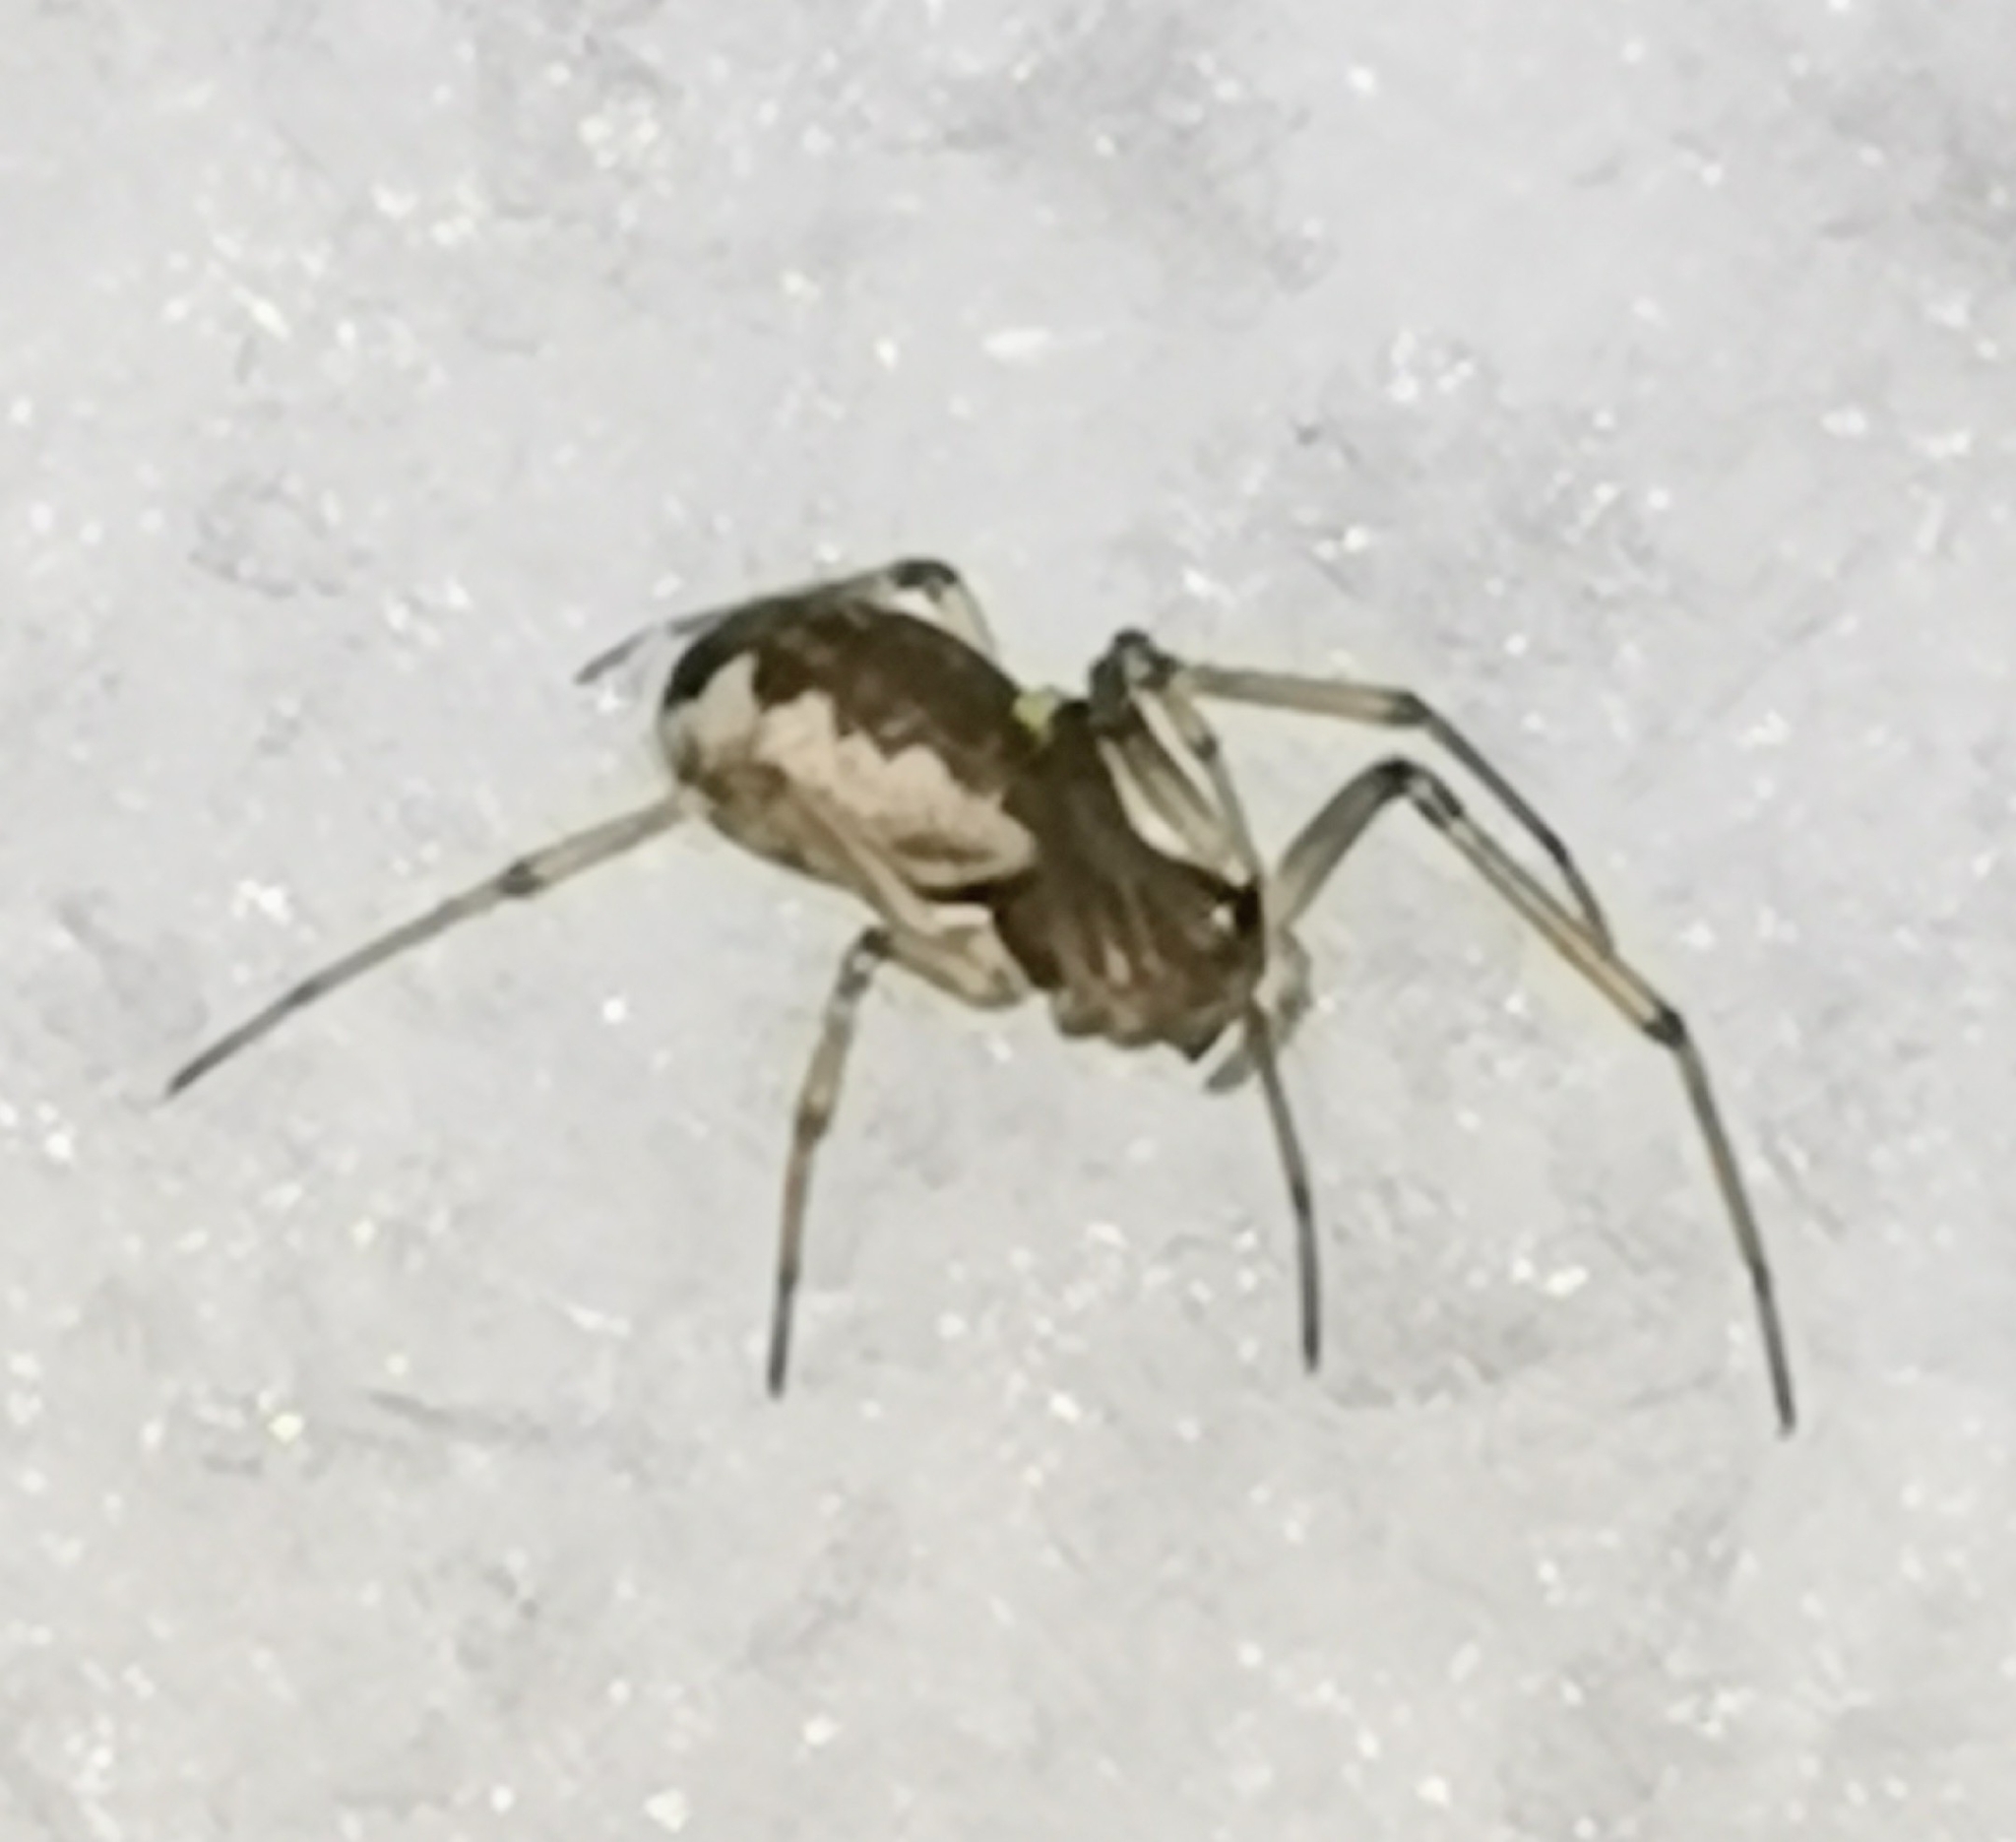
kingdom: Animalia
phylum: Arthropoda
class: Arachnida
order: Araneae
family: Linyphiidae
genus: Neriene
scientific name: Neriene peltata
